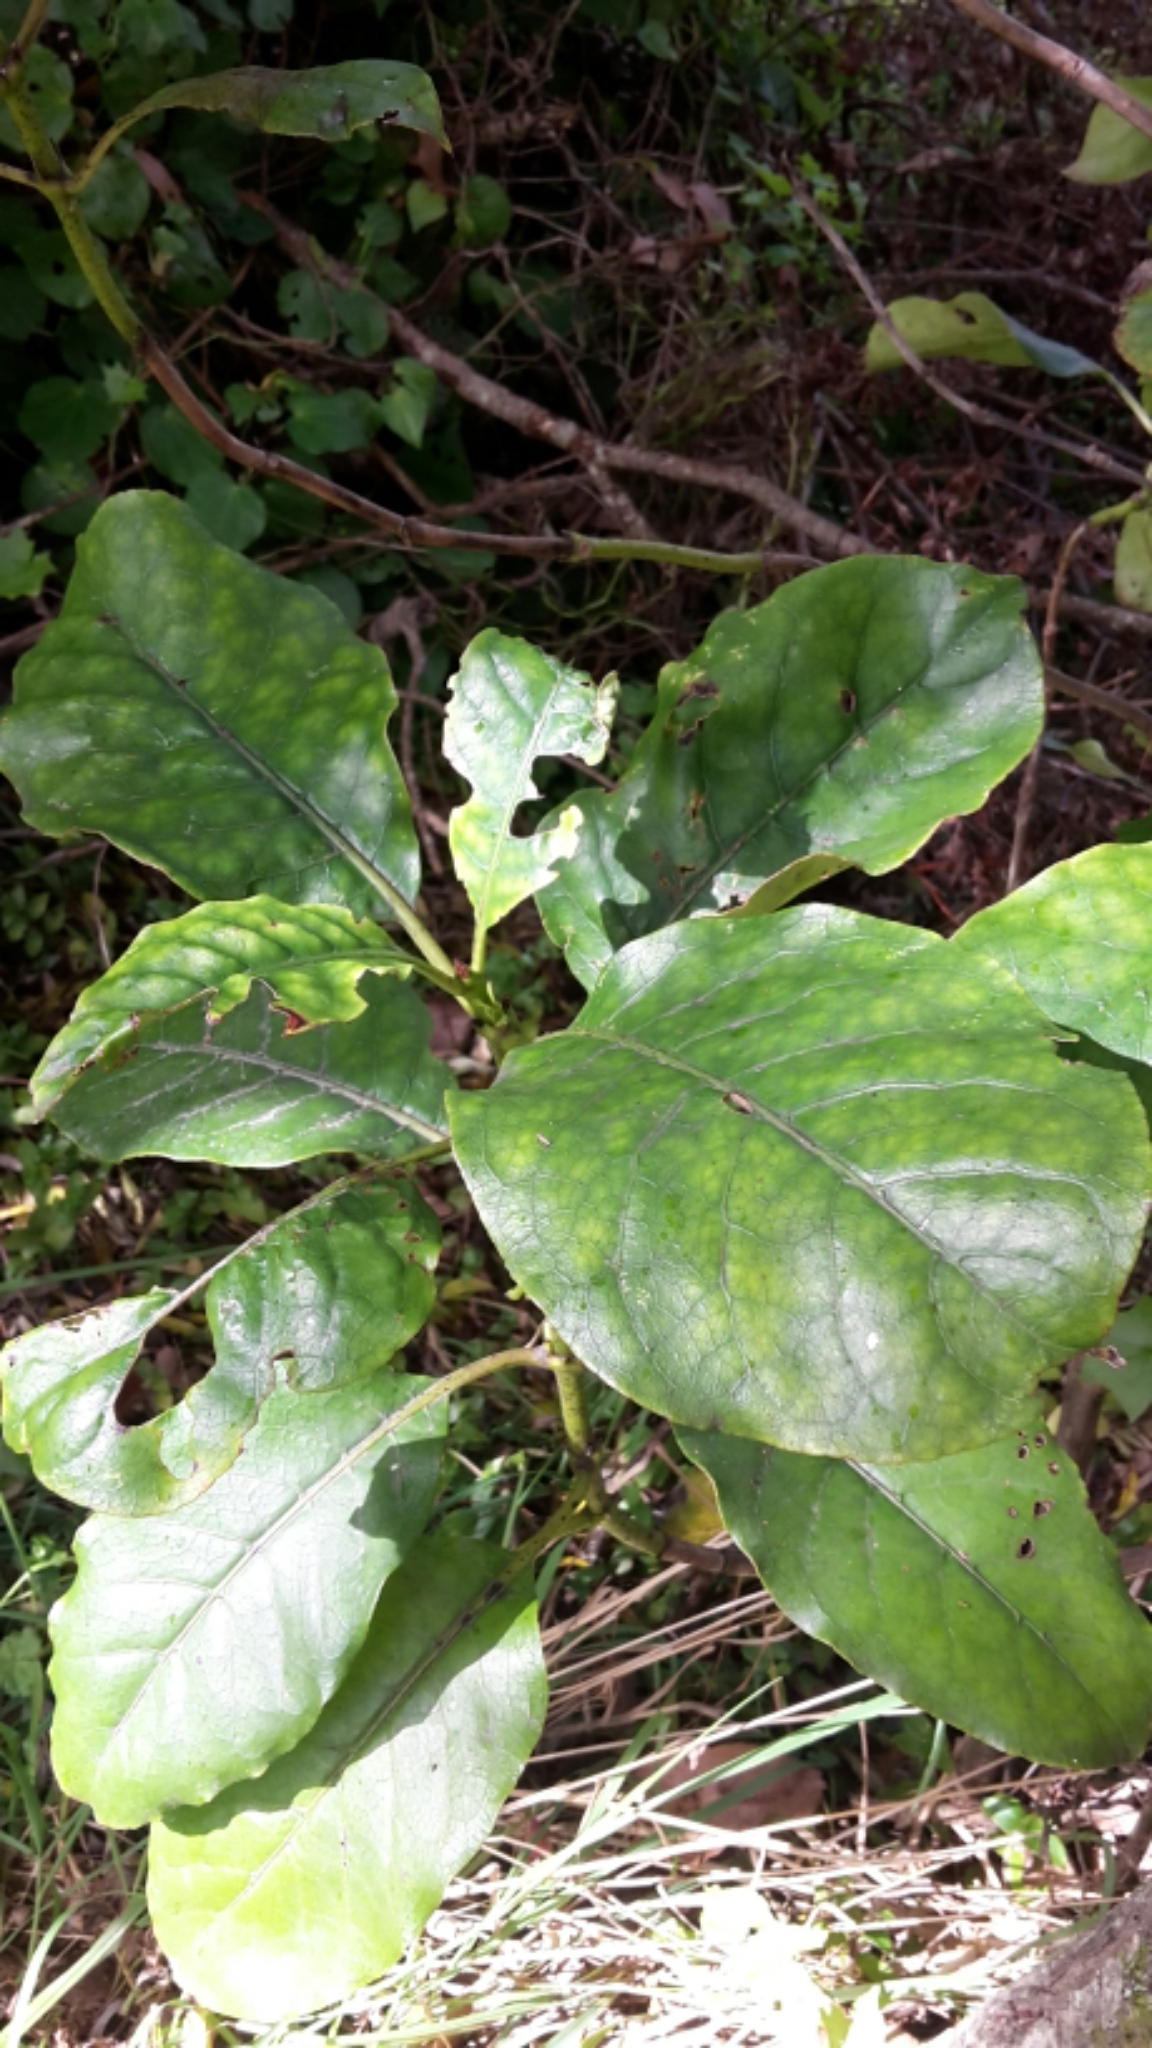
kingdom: Plantae
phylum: Tracheophyta
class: Magnoliopsida
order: Gentianales
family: Rubiaceae
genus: Coprosma
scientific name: Coprosma autumnalis
